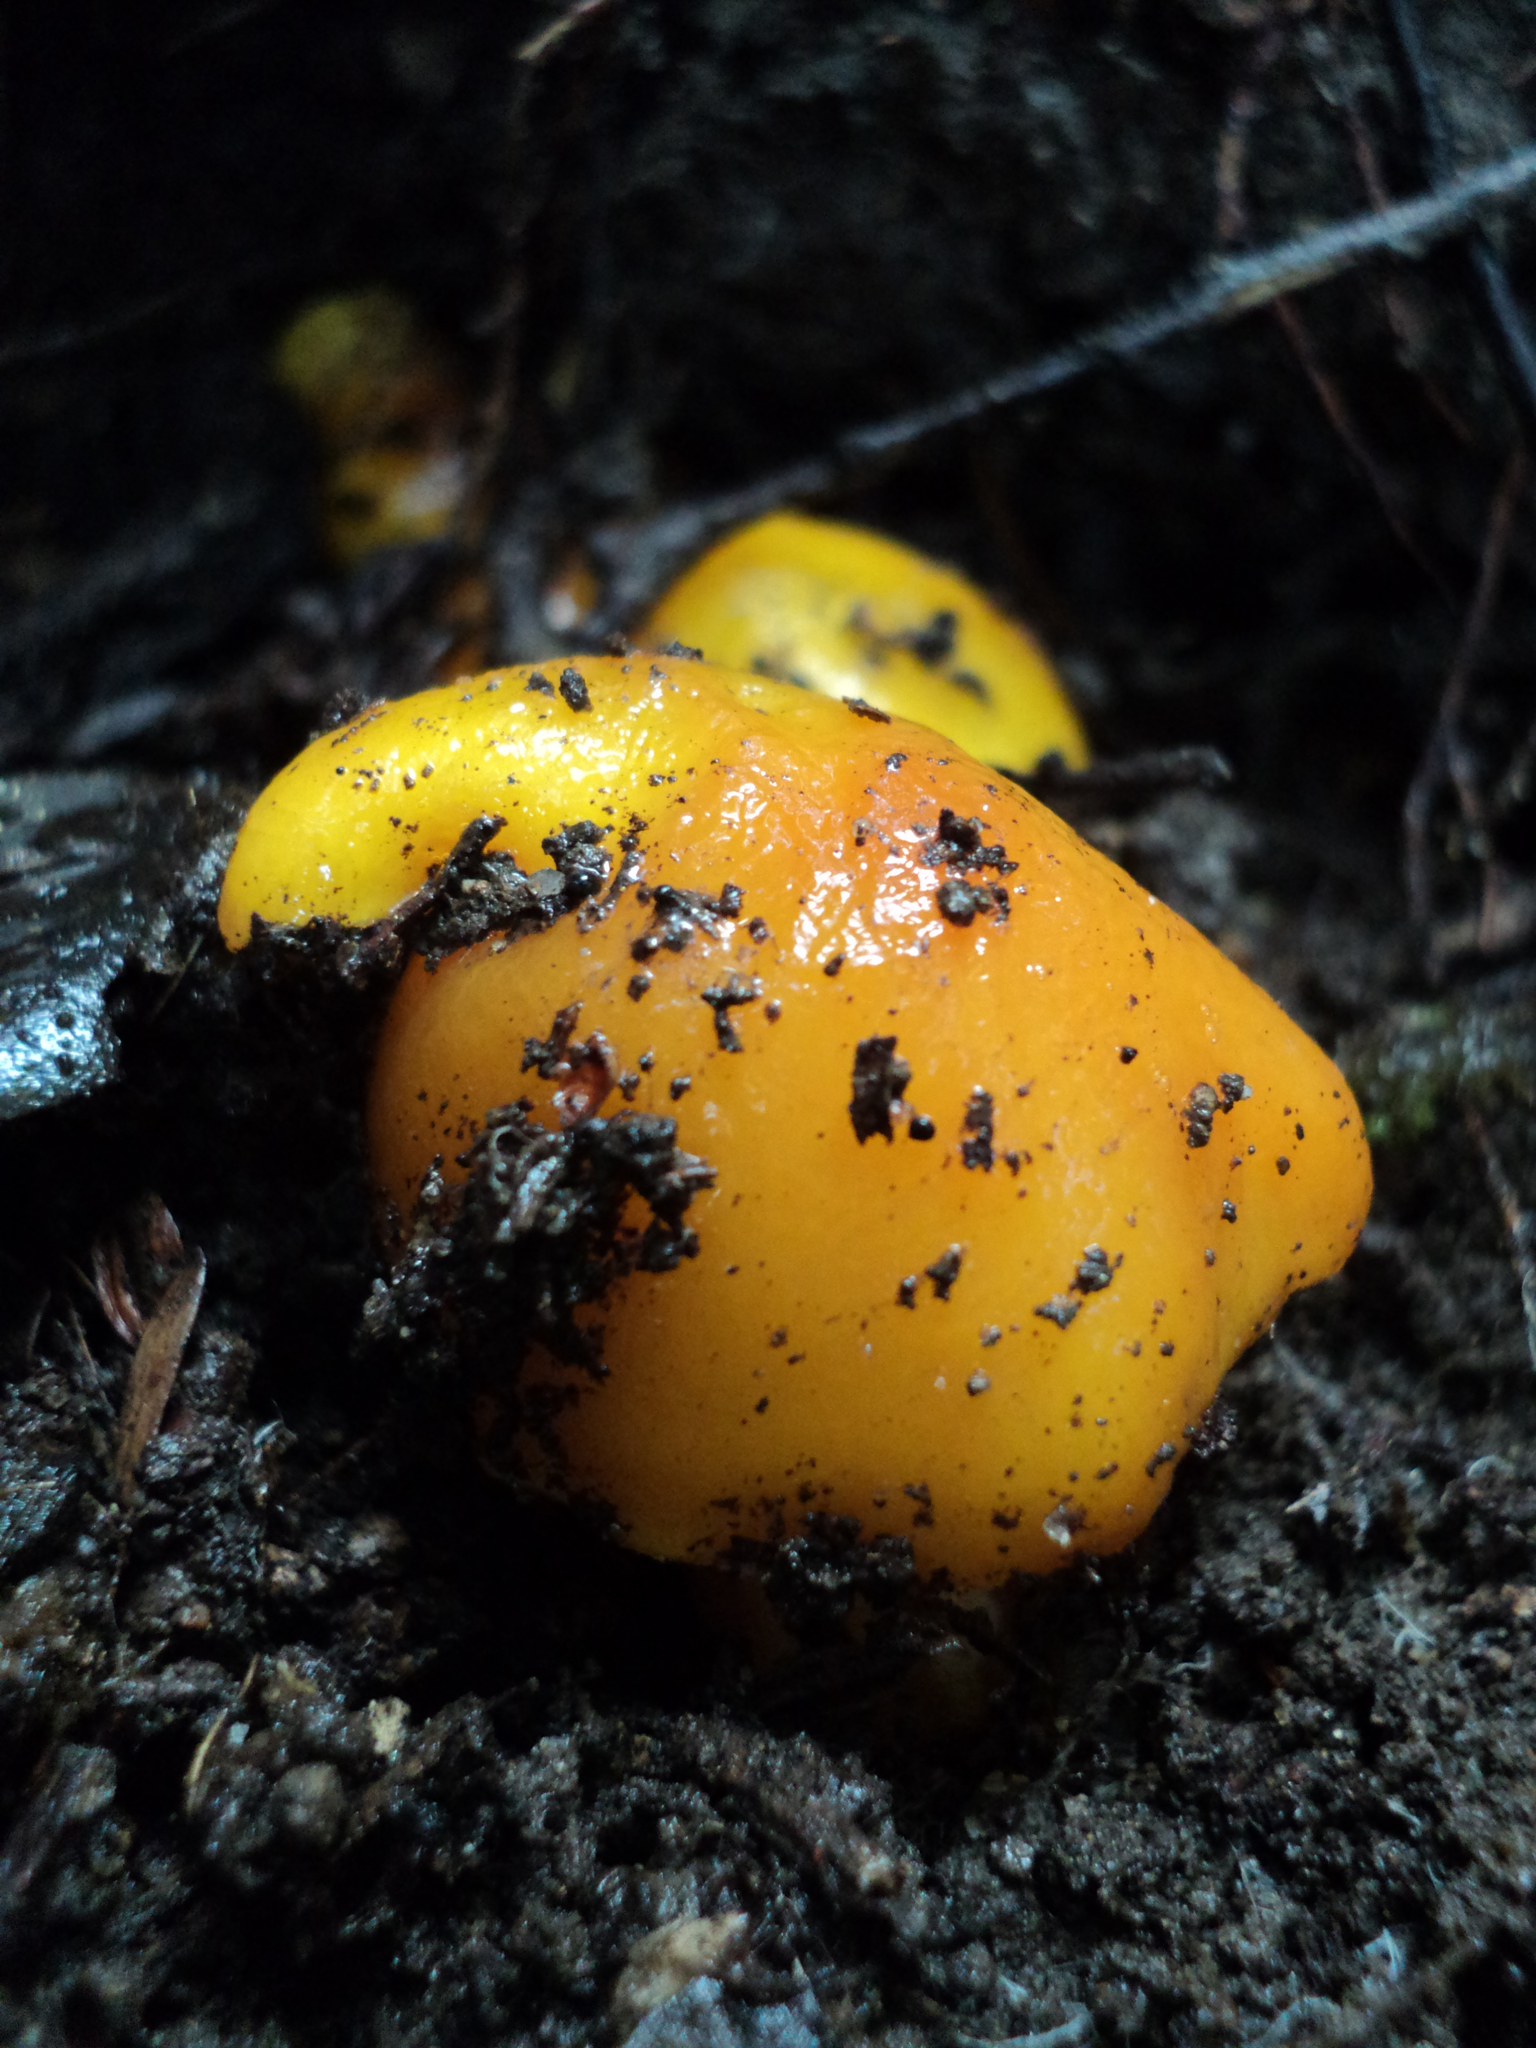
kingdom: Fungi
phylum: Basidiomycota
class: Agaricomycetes
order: Agaricales
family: Hygrophoraceae
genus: Hygrocybe
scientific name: Hygrocybe flavescens
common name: Golden waxy cap
